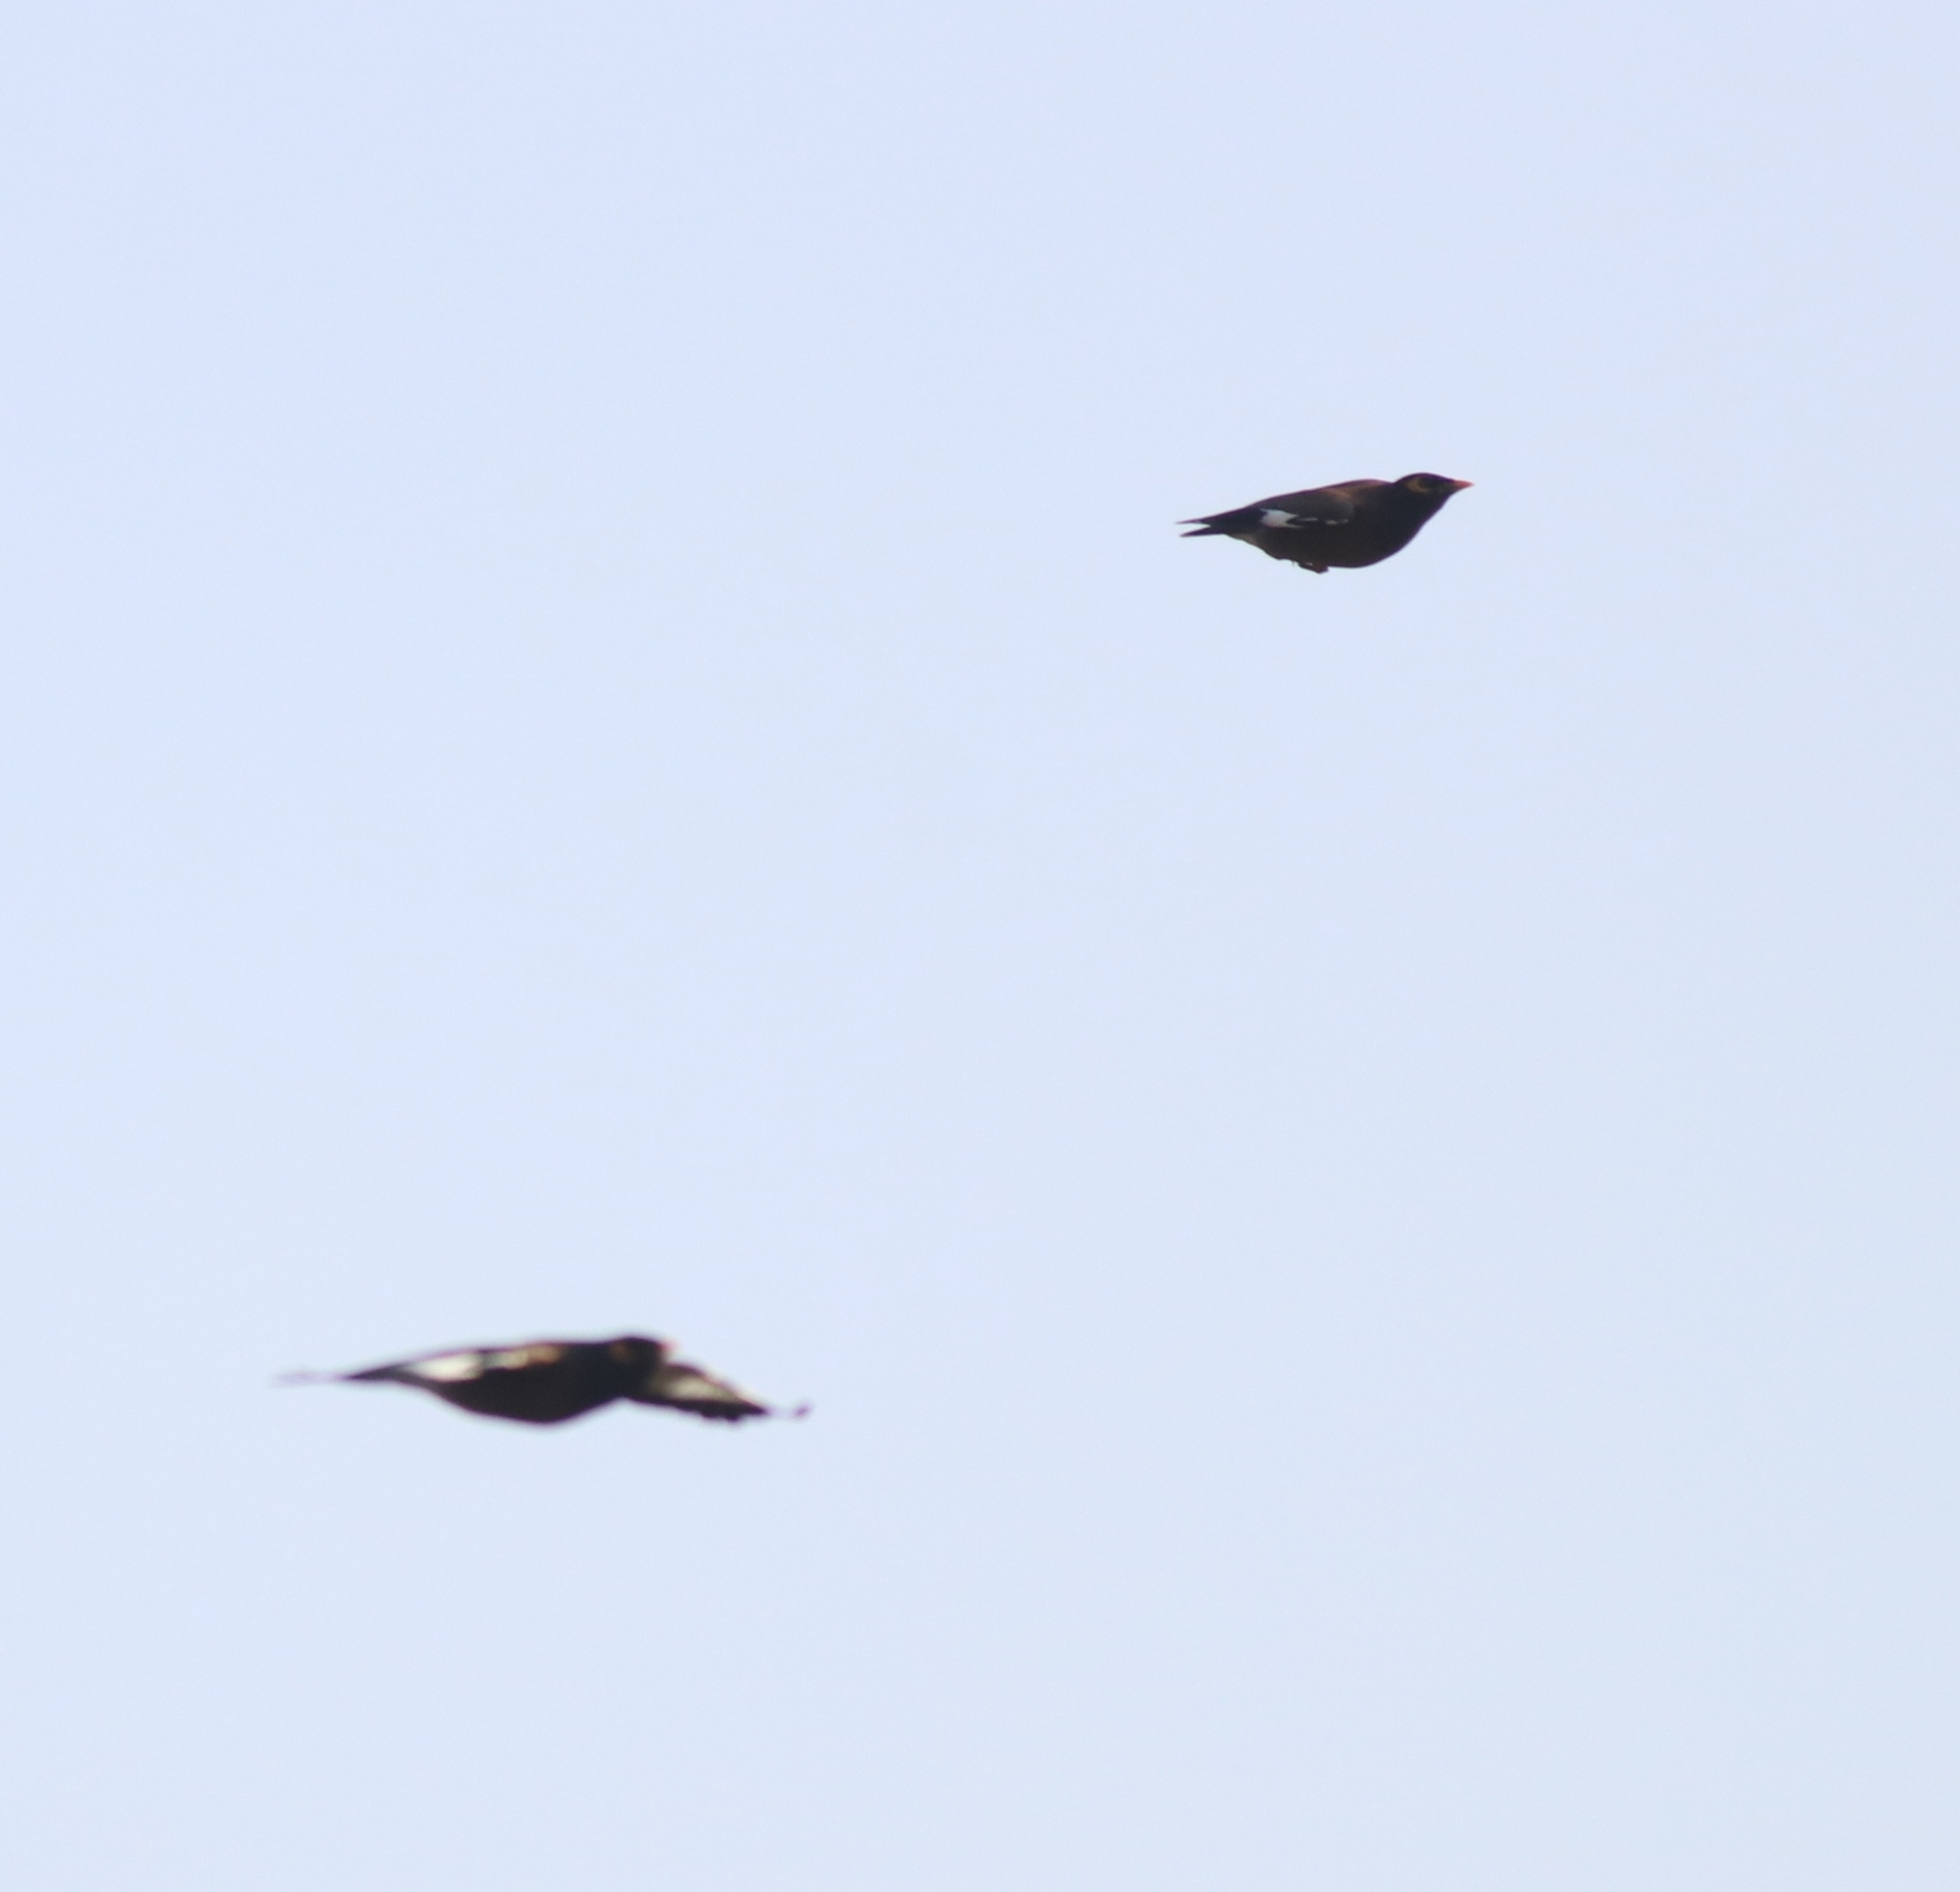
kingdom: Animalia
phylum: Chordata
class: Aves
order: Passeriformes
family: Sturnidae
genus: Acridotheres
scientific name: Acridotheres tristis
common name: Common myna
